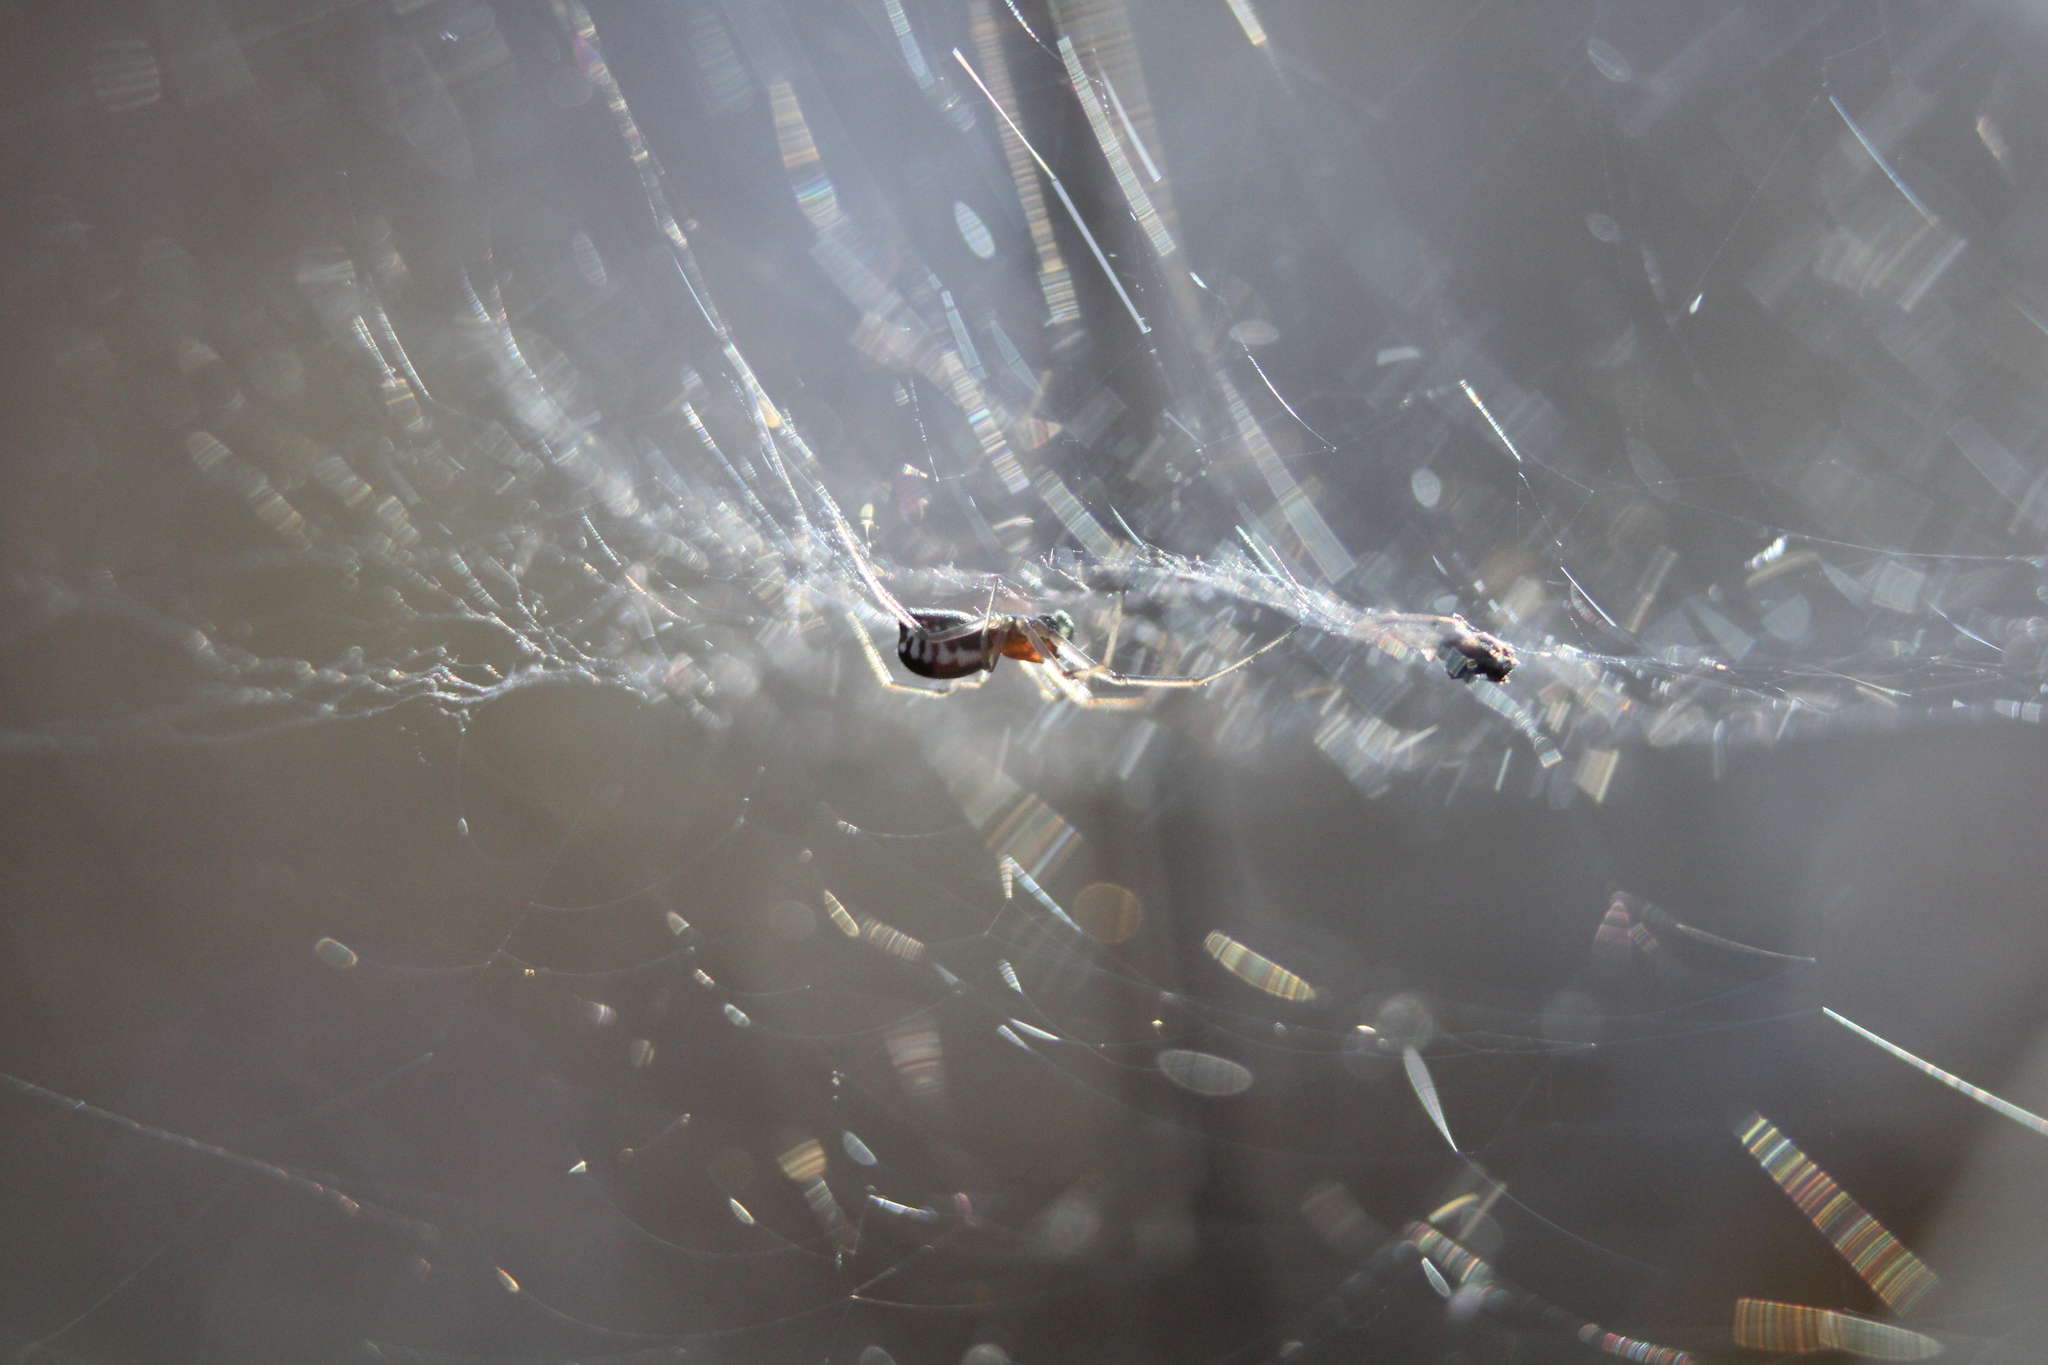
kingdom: Animalia
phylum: Arthropoda
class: Arachnida
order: Araneae
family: Linyphiidae
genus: Frontinella
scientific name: Frontinella pyramitela
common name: Bowl-and-doily spider
